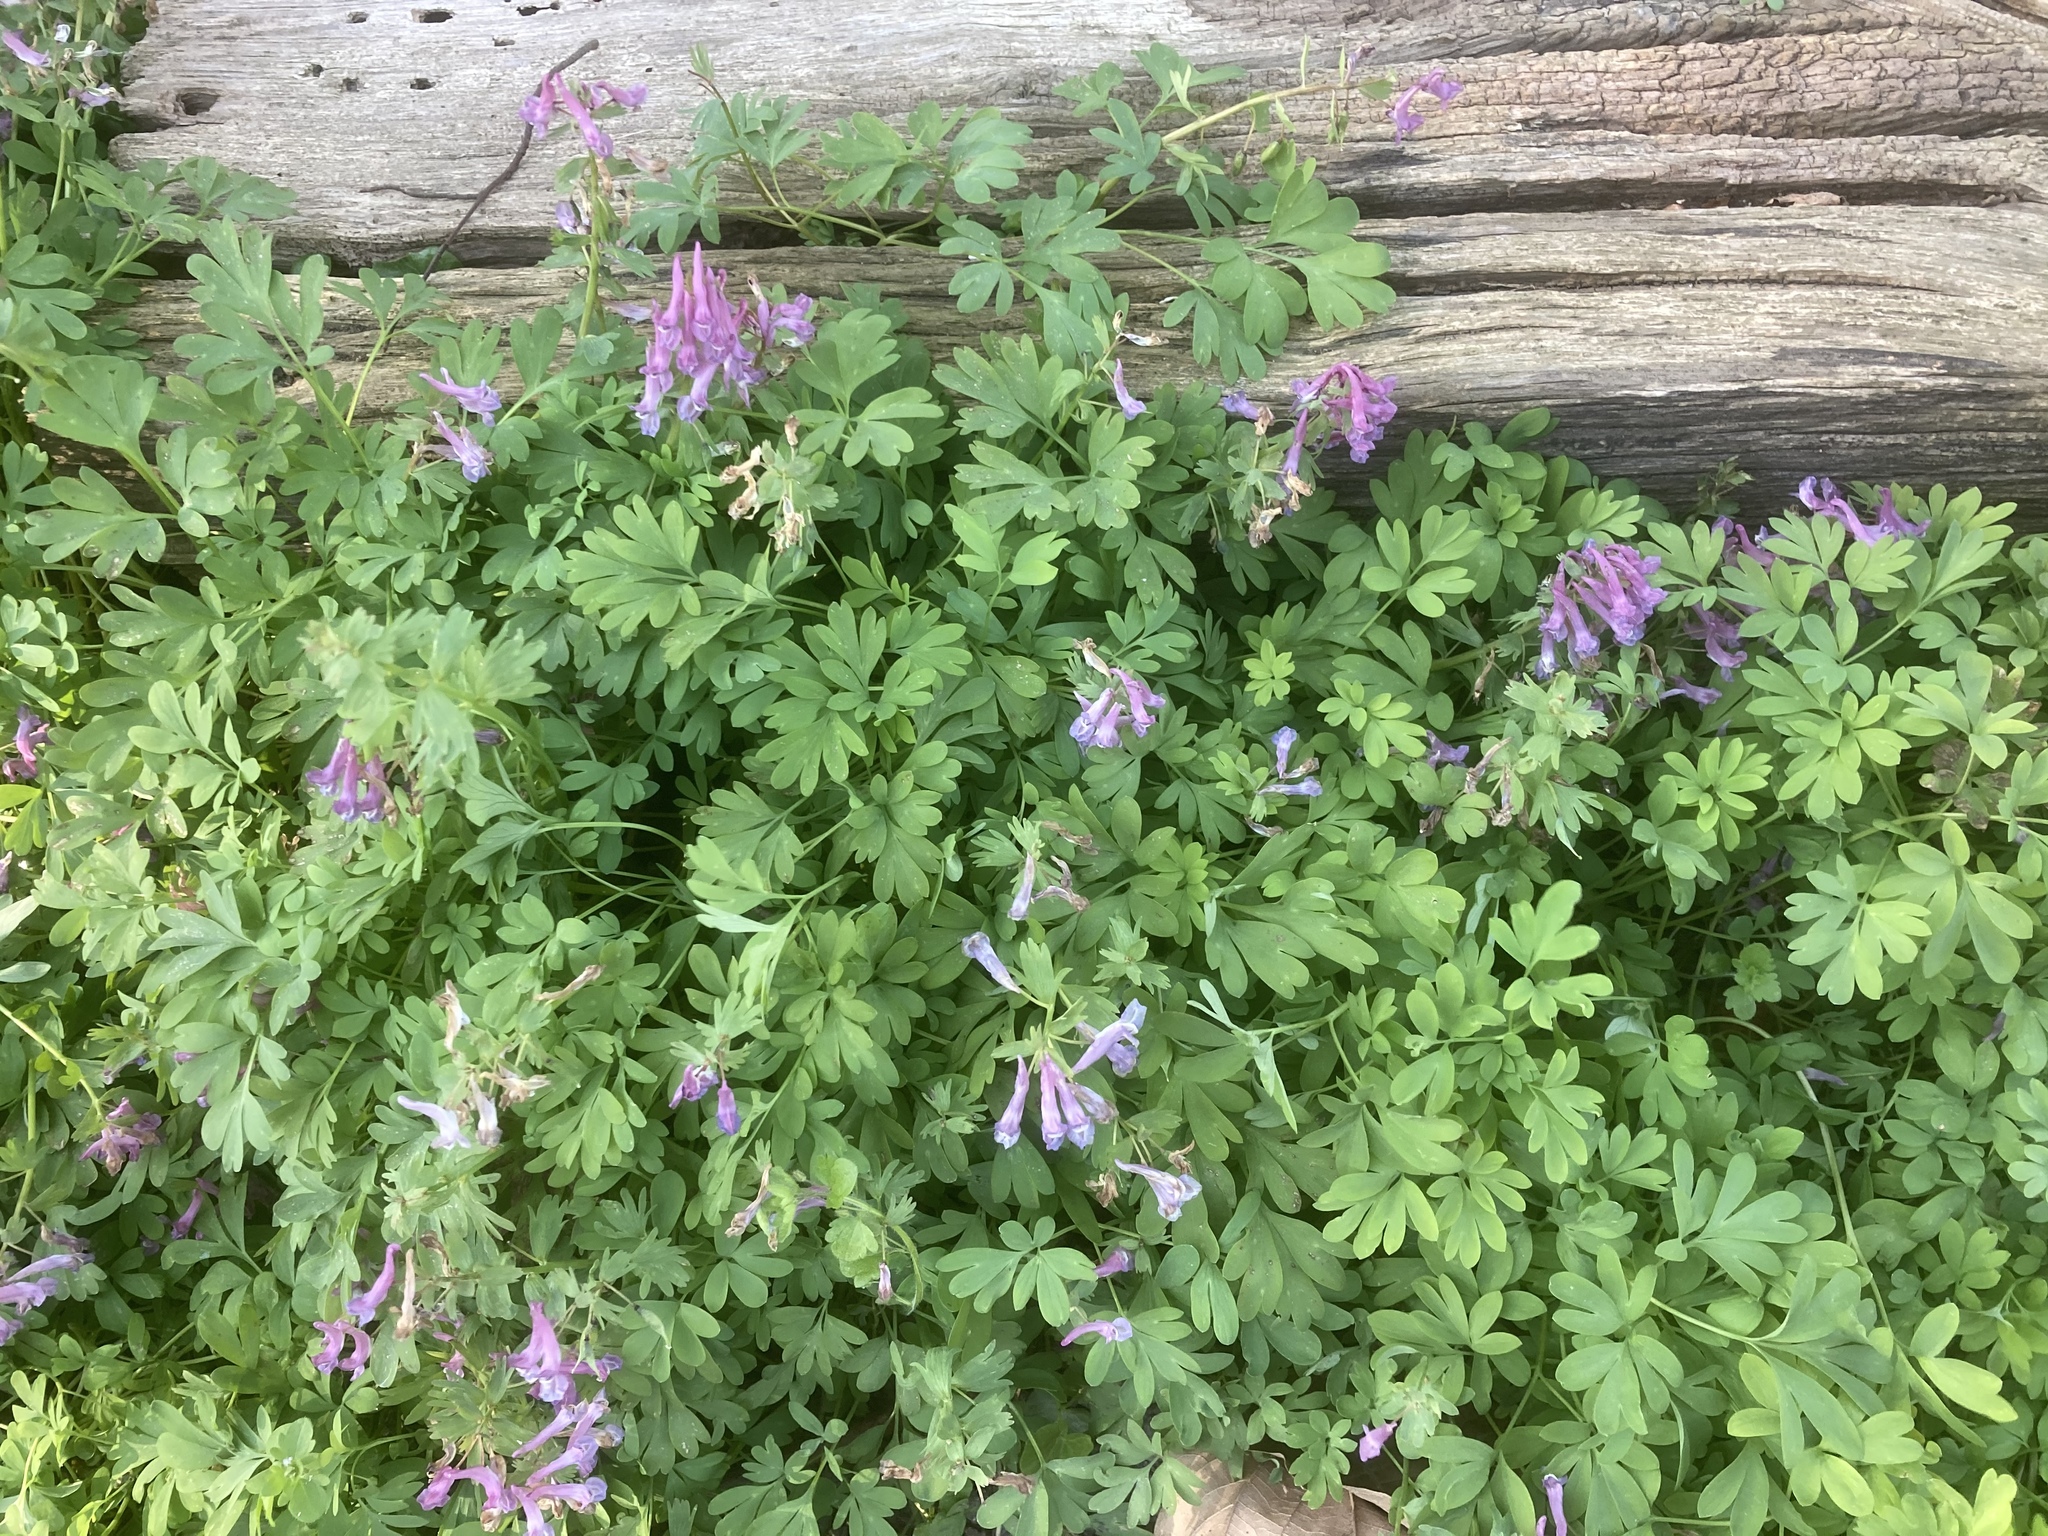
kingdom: Plantae
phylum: Tracheophyta
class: Magnoliopsida
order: Ranunculales
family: Papaveraceae
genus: Corydalis
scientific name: Corydalis solida
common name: Bird-in-a-bush
